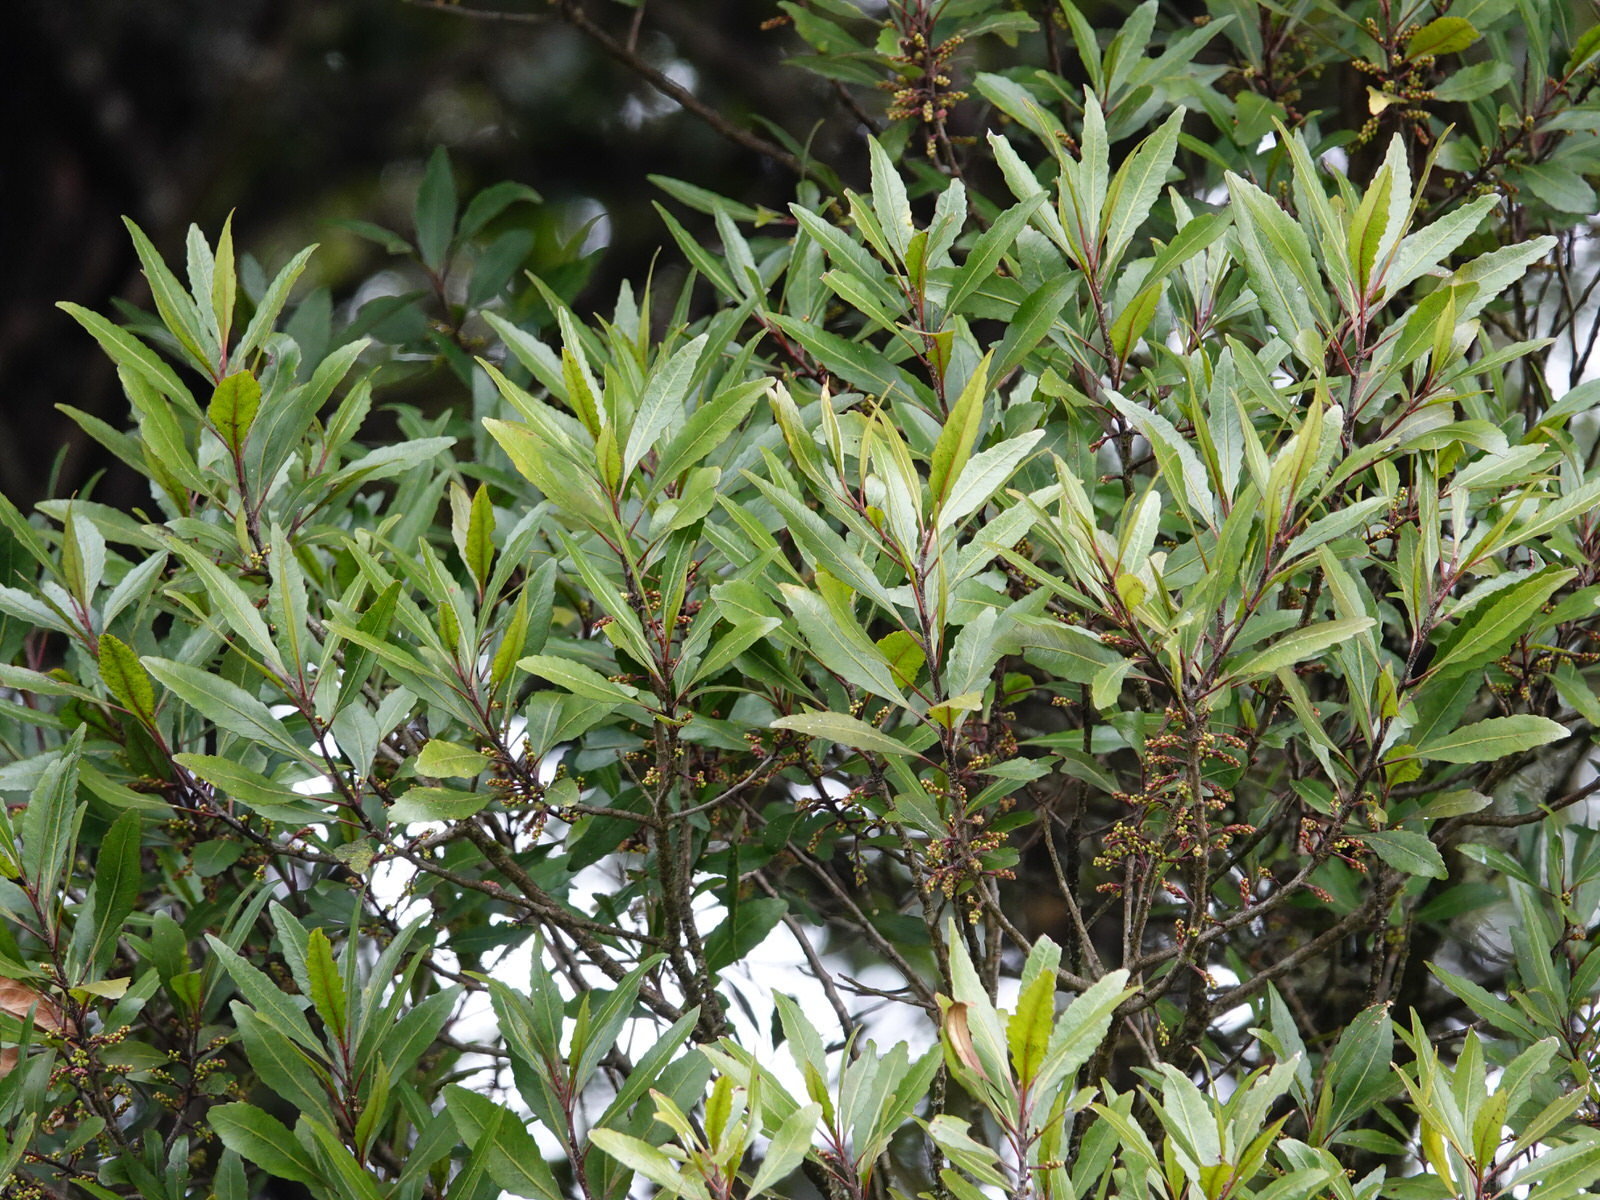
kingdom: Plantae
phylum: Tracheophyta
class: Magnoliopsida
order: Oxalidales
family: Elaeocarpaceae
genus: Elaeocarpus
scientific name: Elaeocarpus hookerianus
